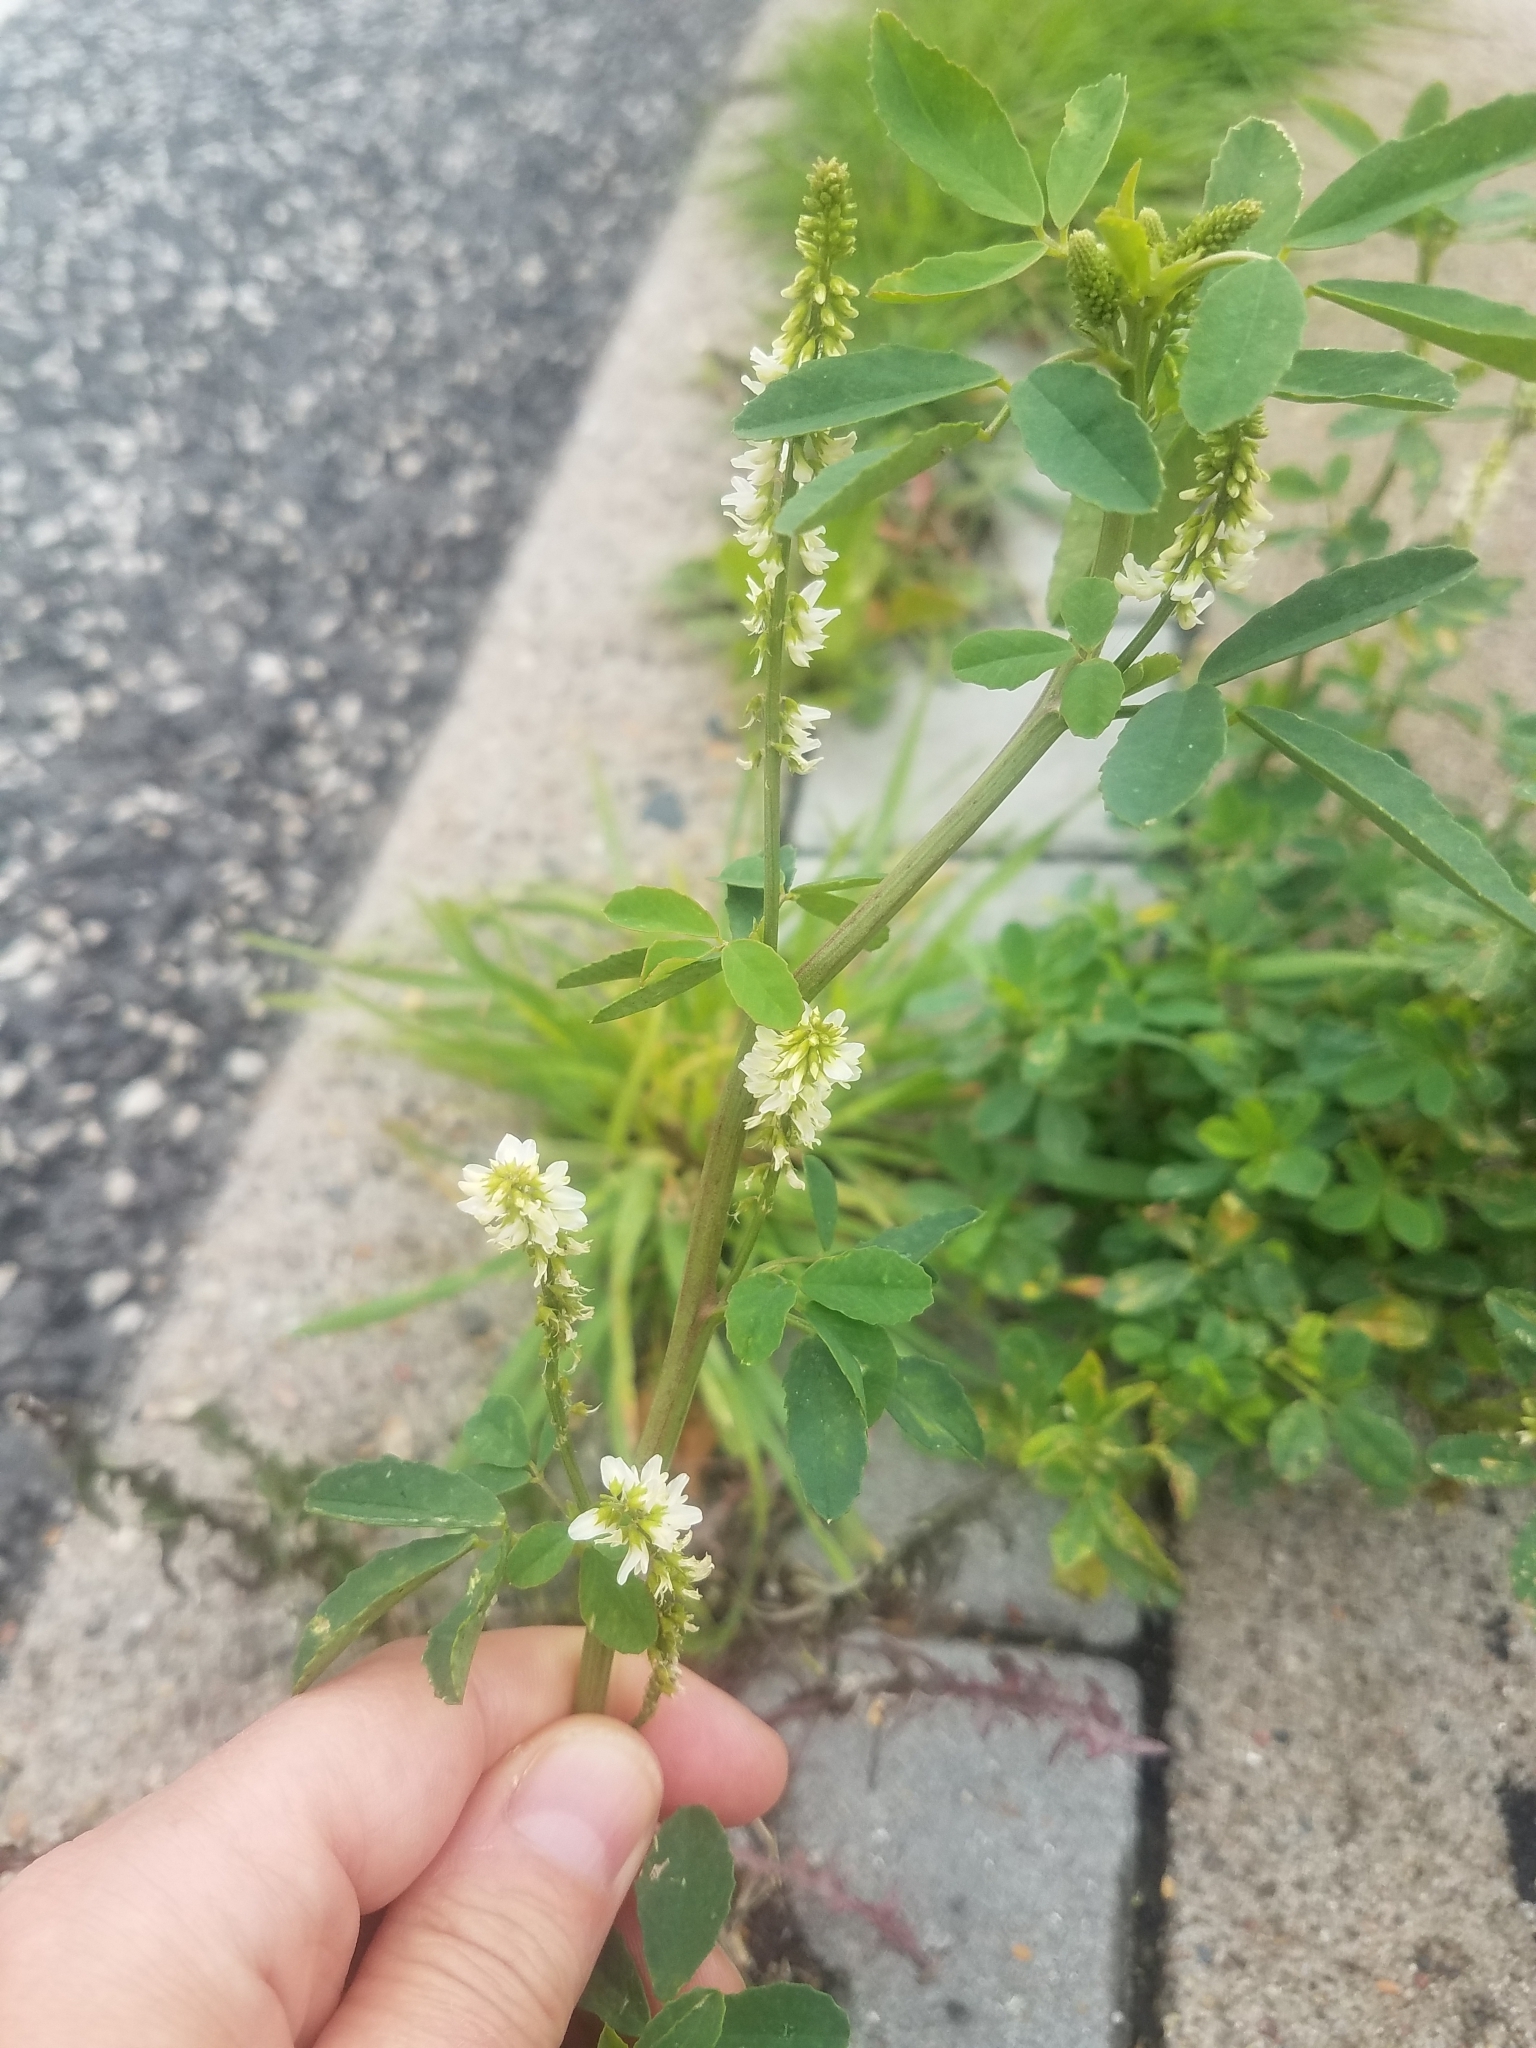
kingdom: Plantae
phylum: Tracheophyta
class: Magnoliopsida
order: Fabales
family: Fabaceae
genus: Melilotus
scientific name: Melilotus albus
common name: White melilot
